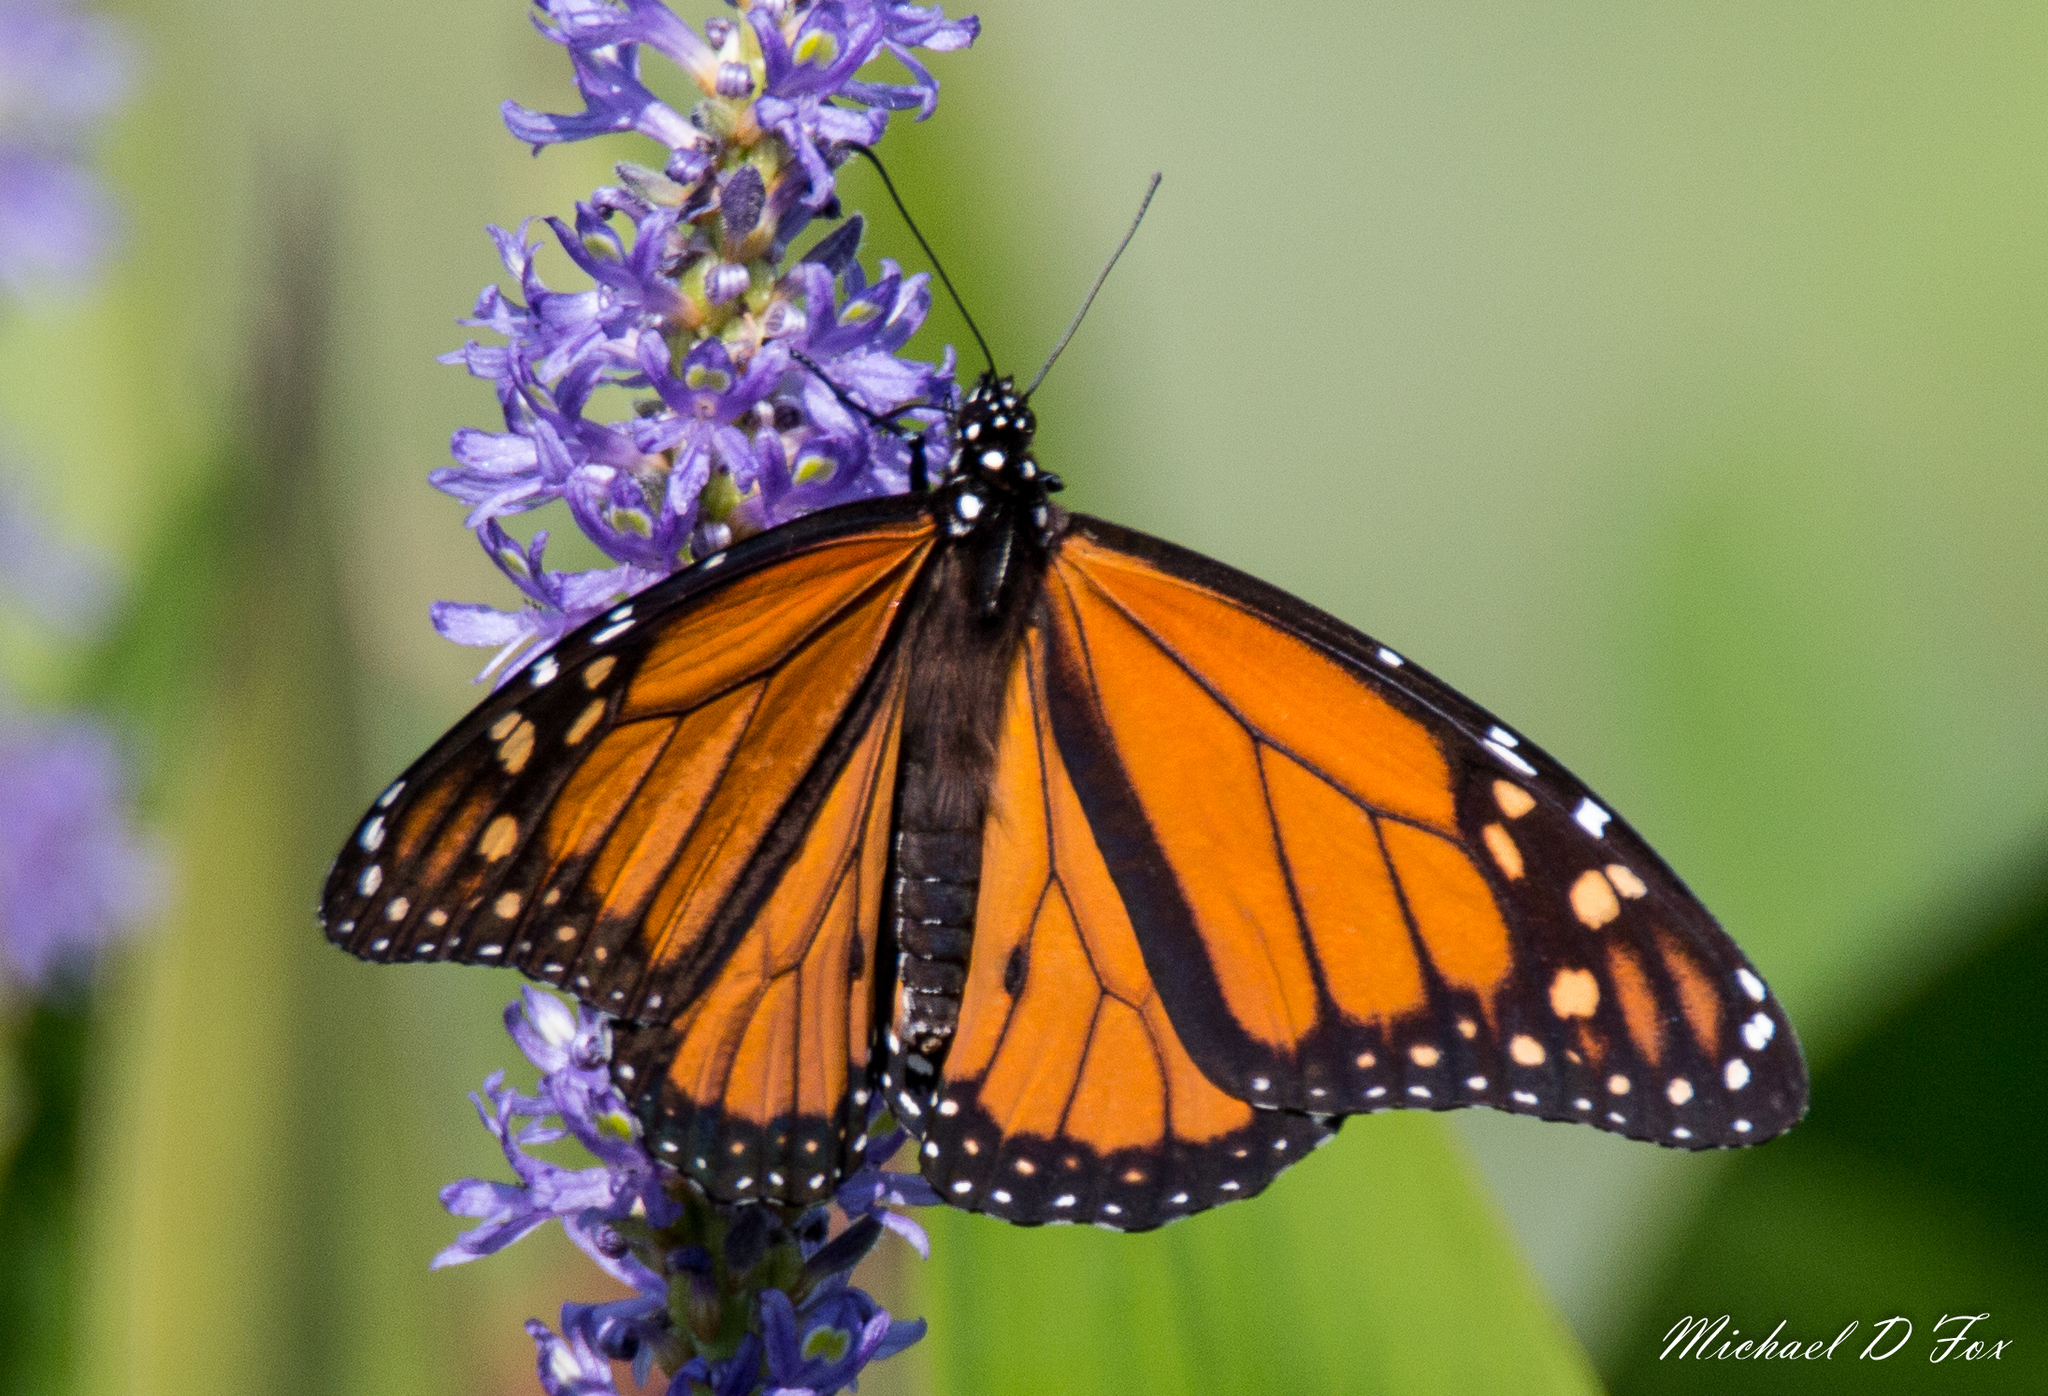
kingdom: Animalia
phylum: Arthropoda
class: Insecta
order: Lepidoptera
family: Nymphalidae
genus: Danaus
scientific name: Danaus plexippus
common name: Monarch
